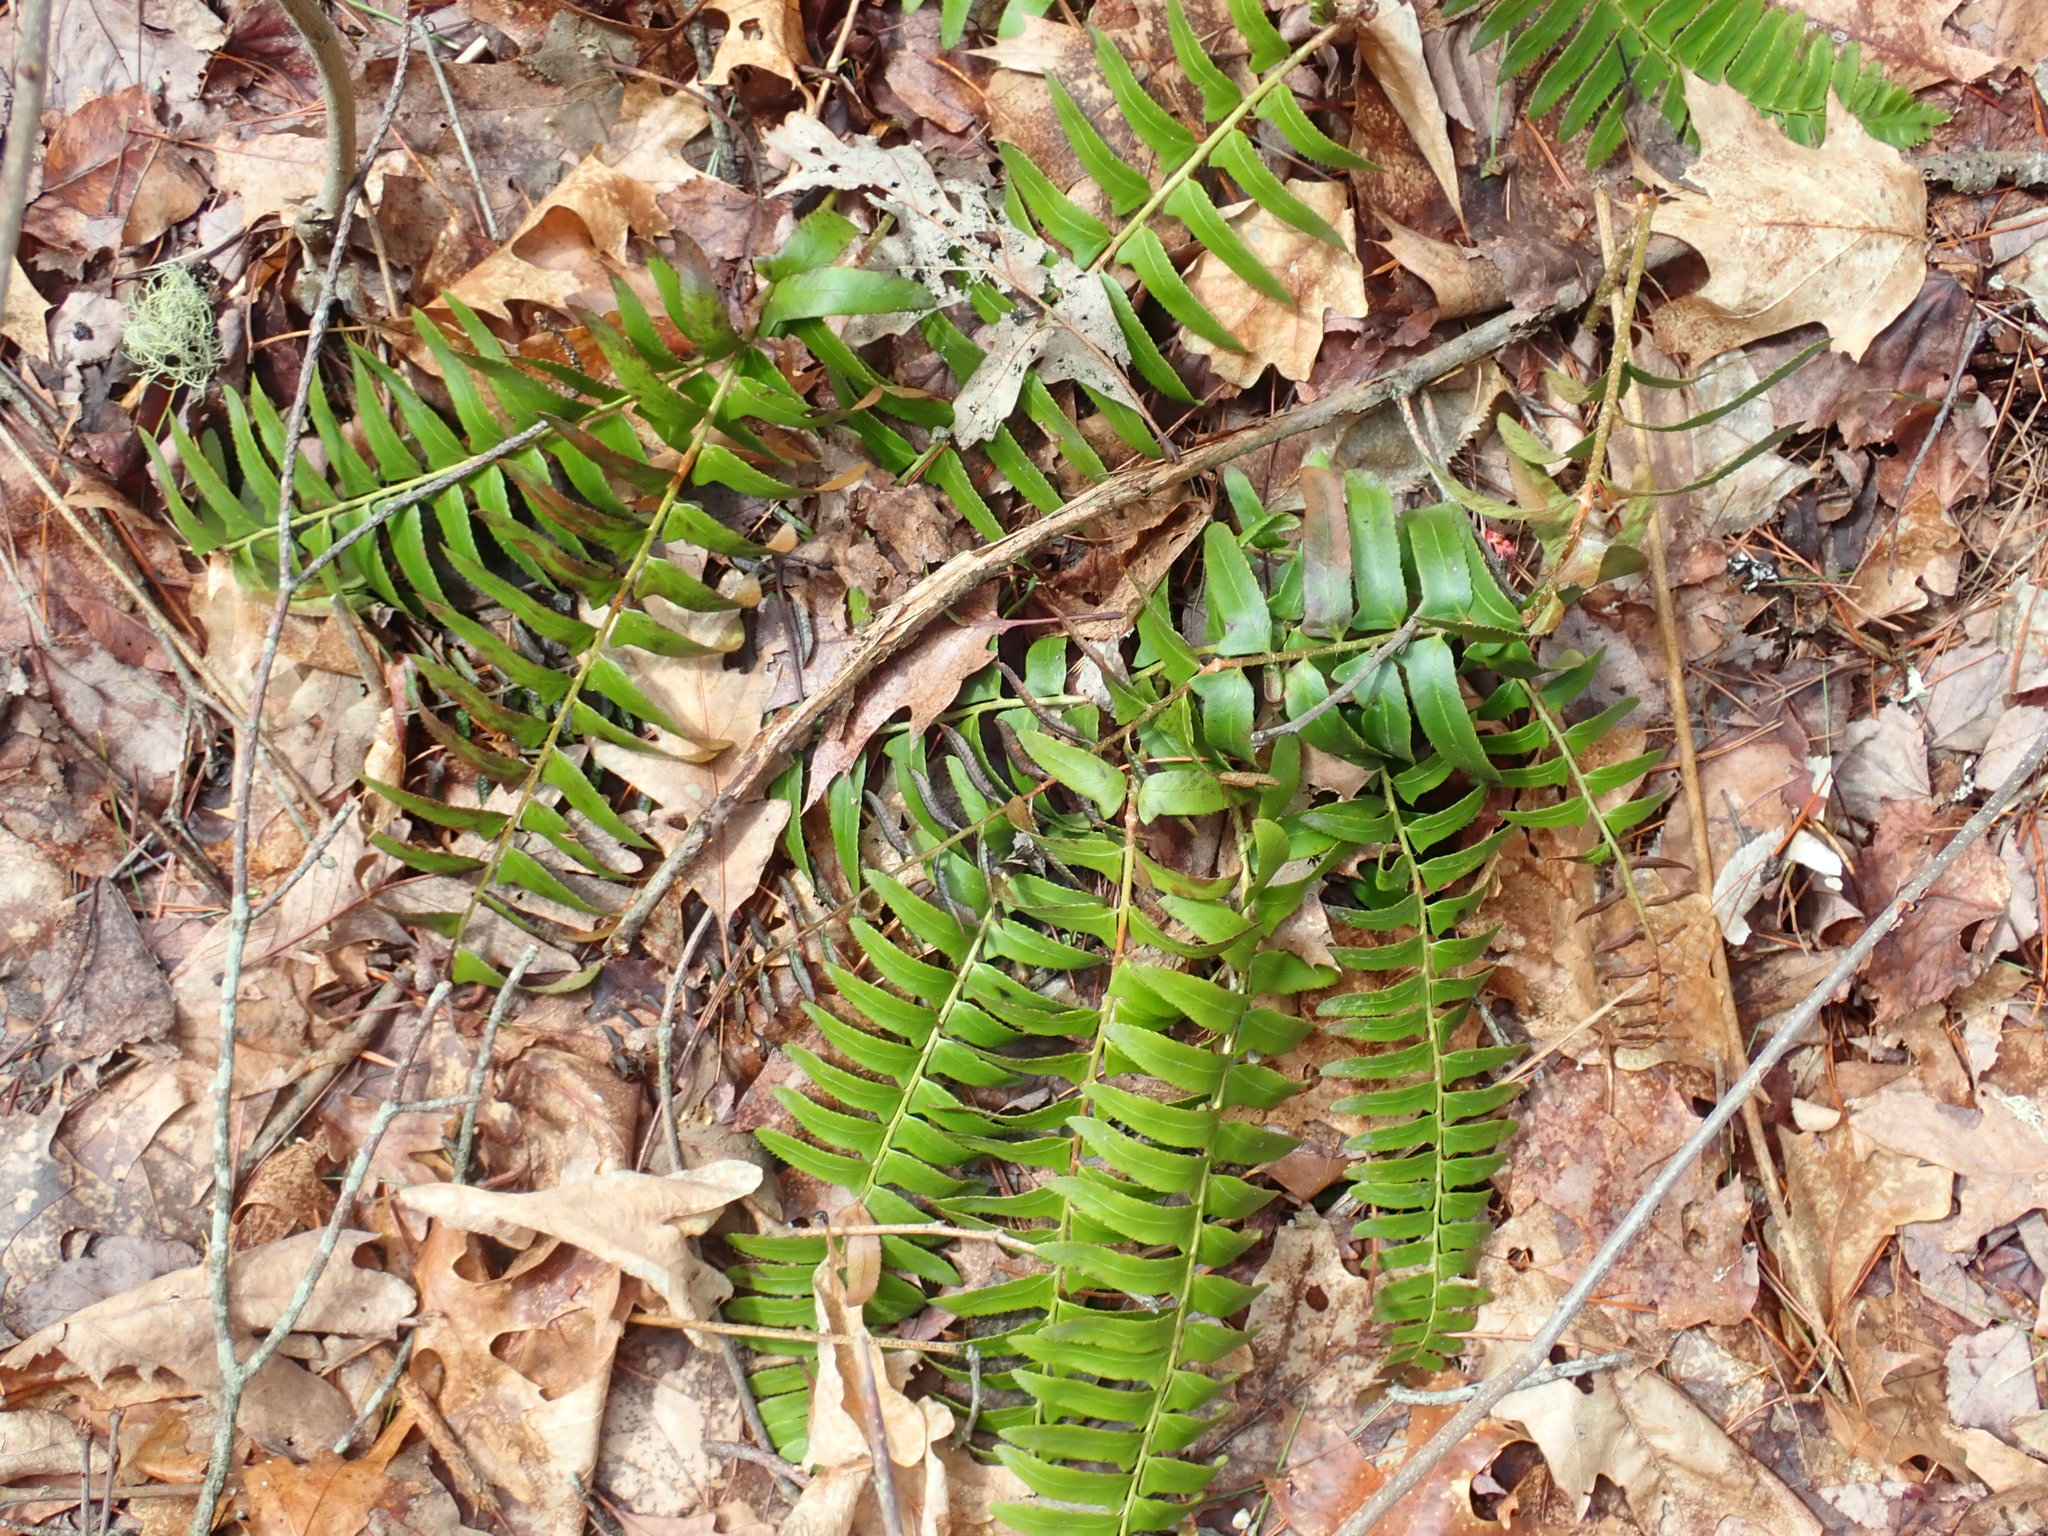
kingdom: Plantae
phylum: Tracheophyta
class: Polypodiopsida
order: Polypodiales
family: Dryopteridaceae
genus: Polystichum
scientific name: Polystichum acrostichoides
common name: Christmas fern
